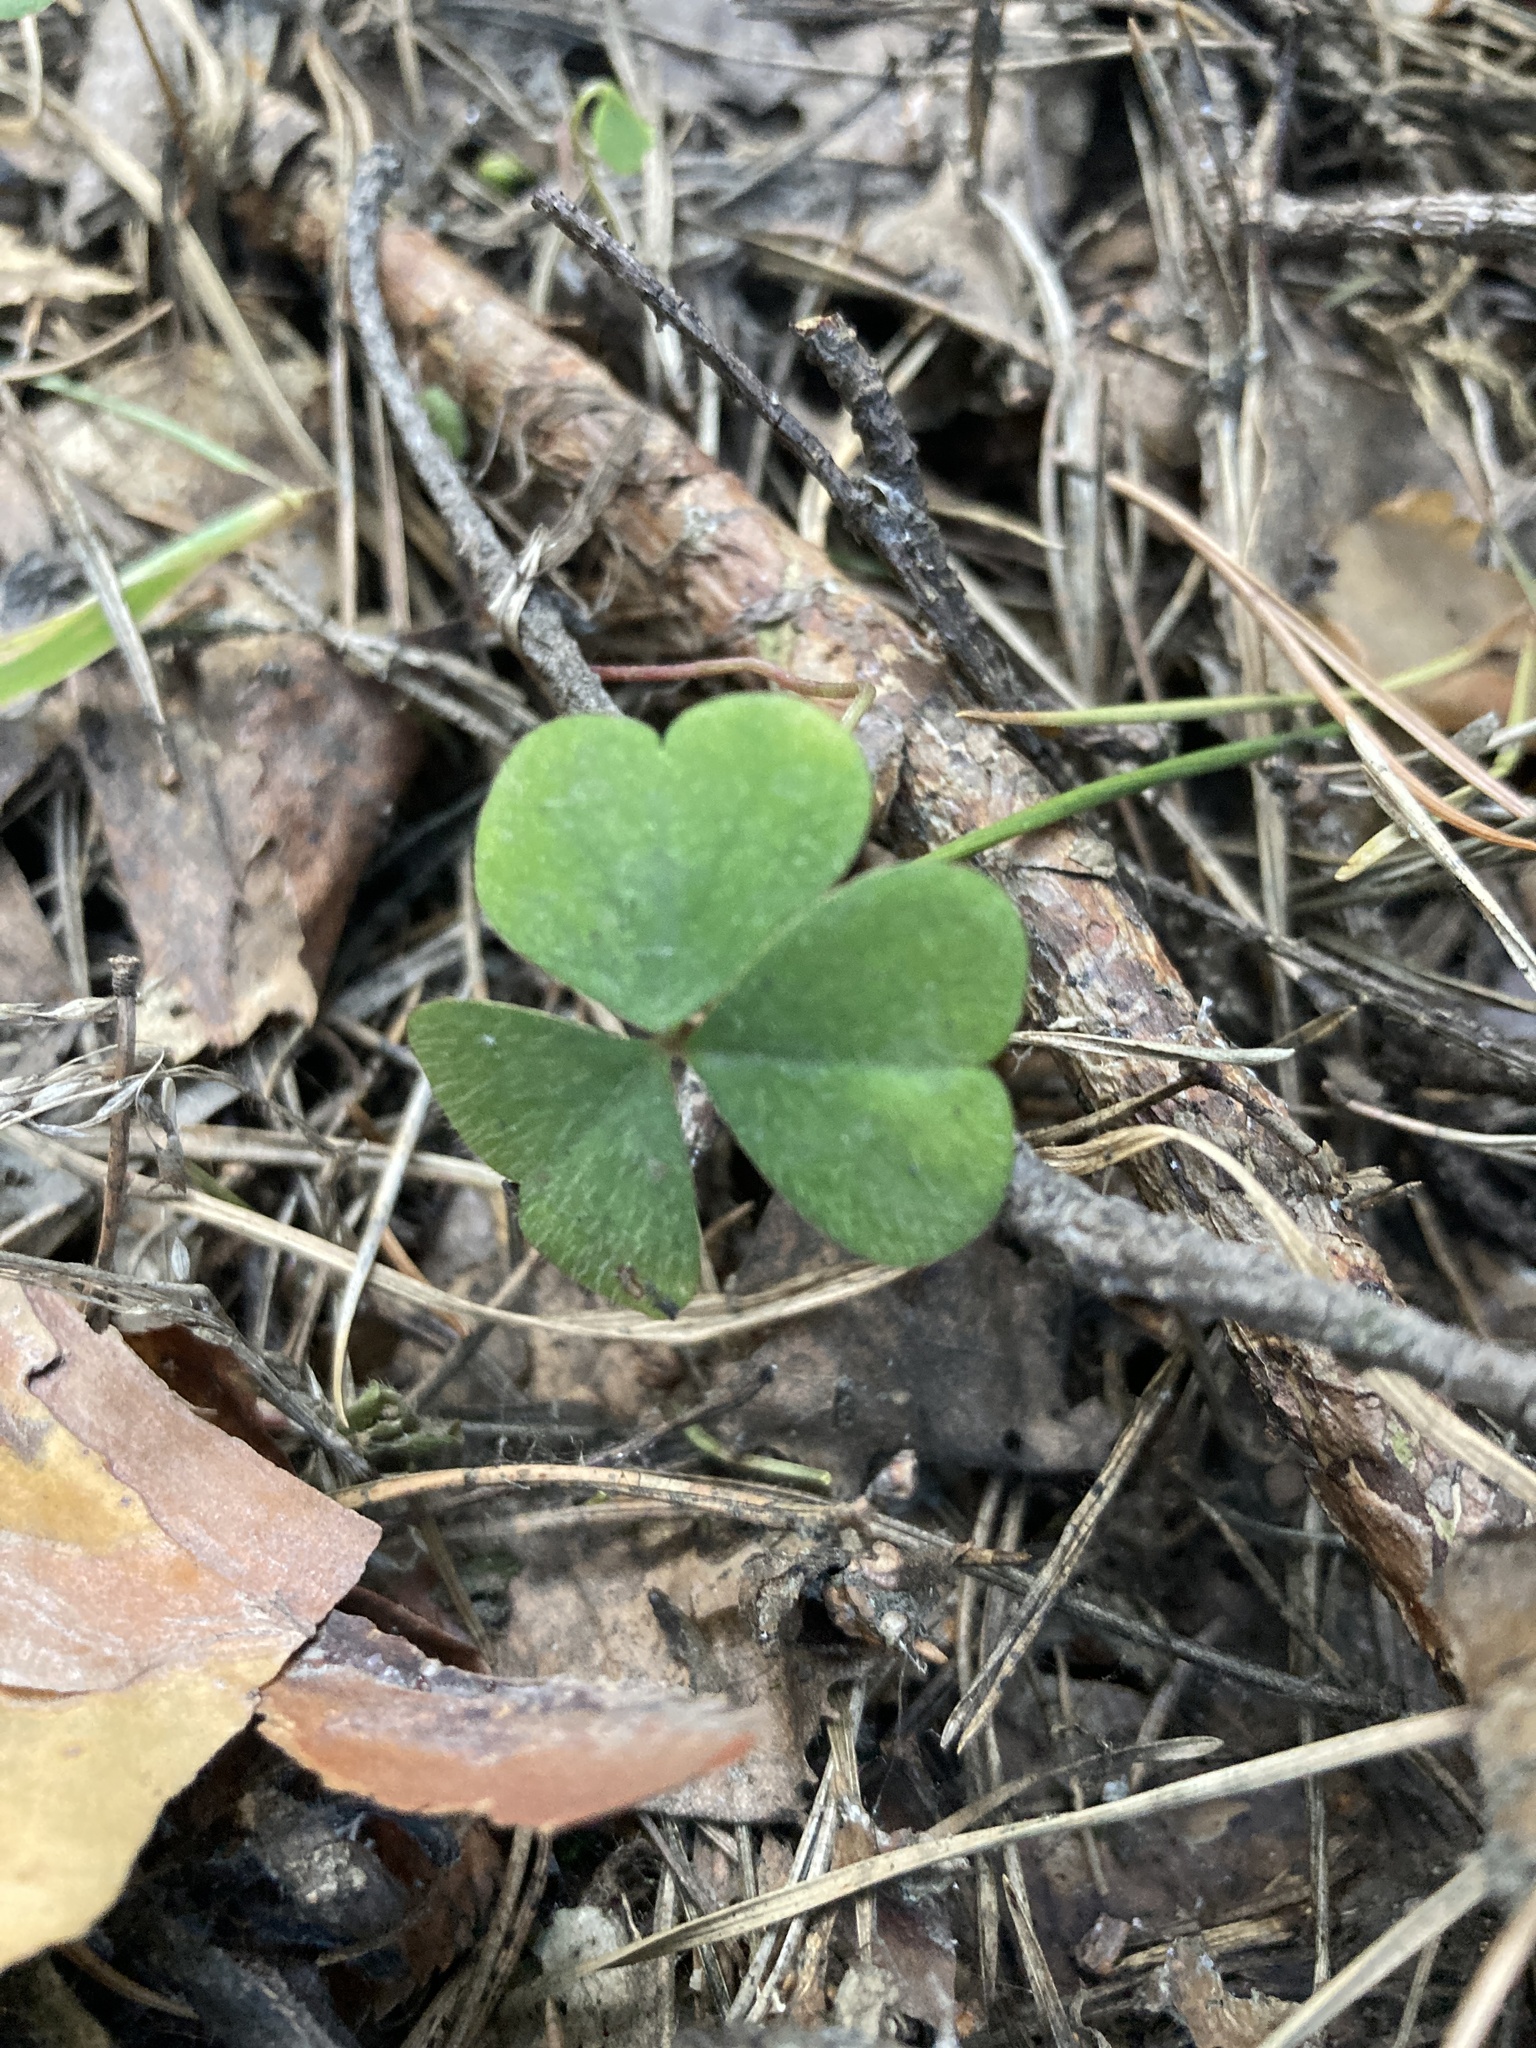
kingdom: Plantae
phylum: Tracheophyta
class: Magnoliopsida
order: Oxalidales
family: Oxalidaceae
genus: Oxalis
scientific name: Oxalis acetosella
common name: Wood-sorrel
